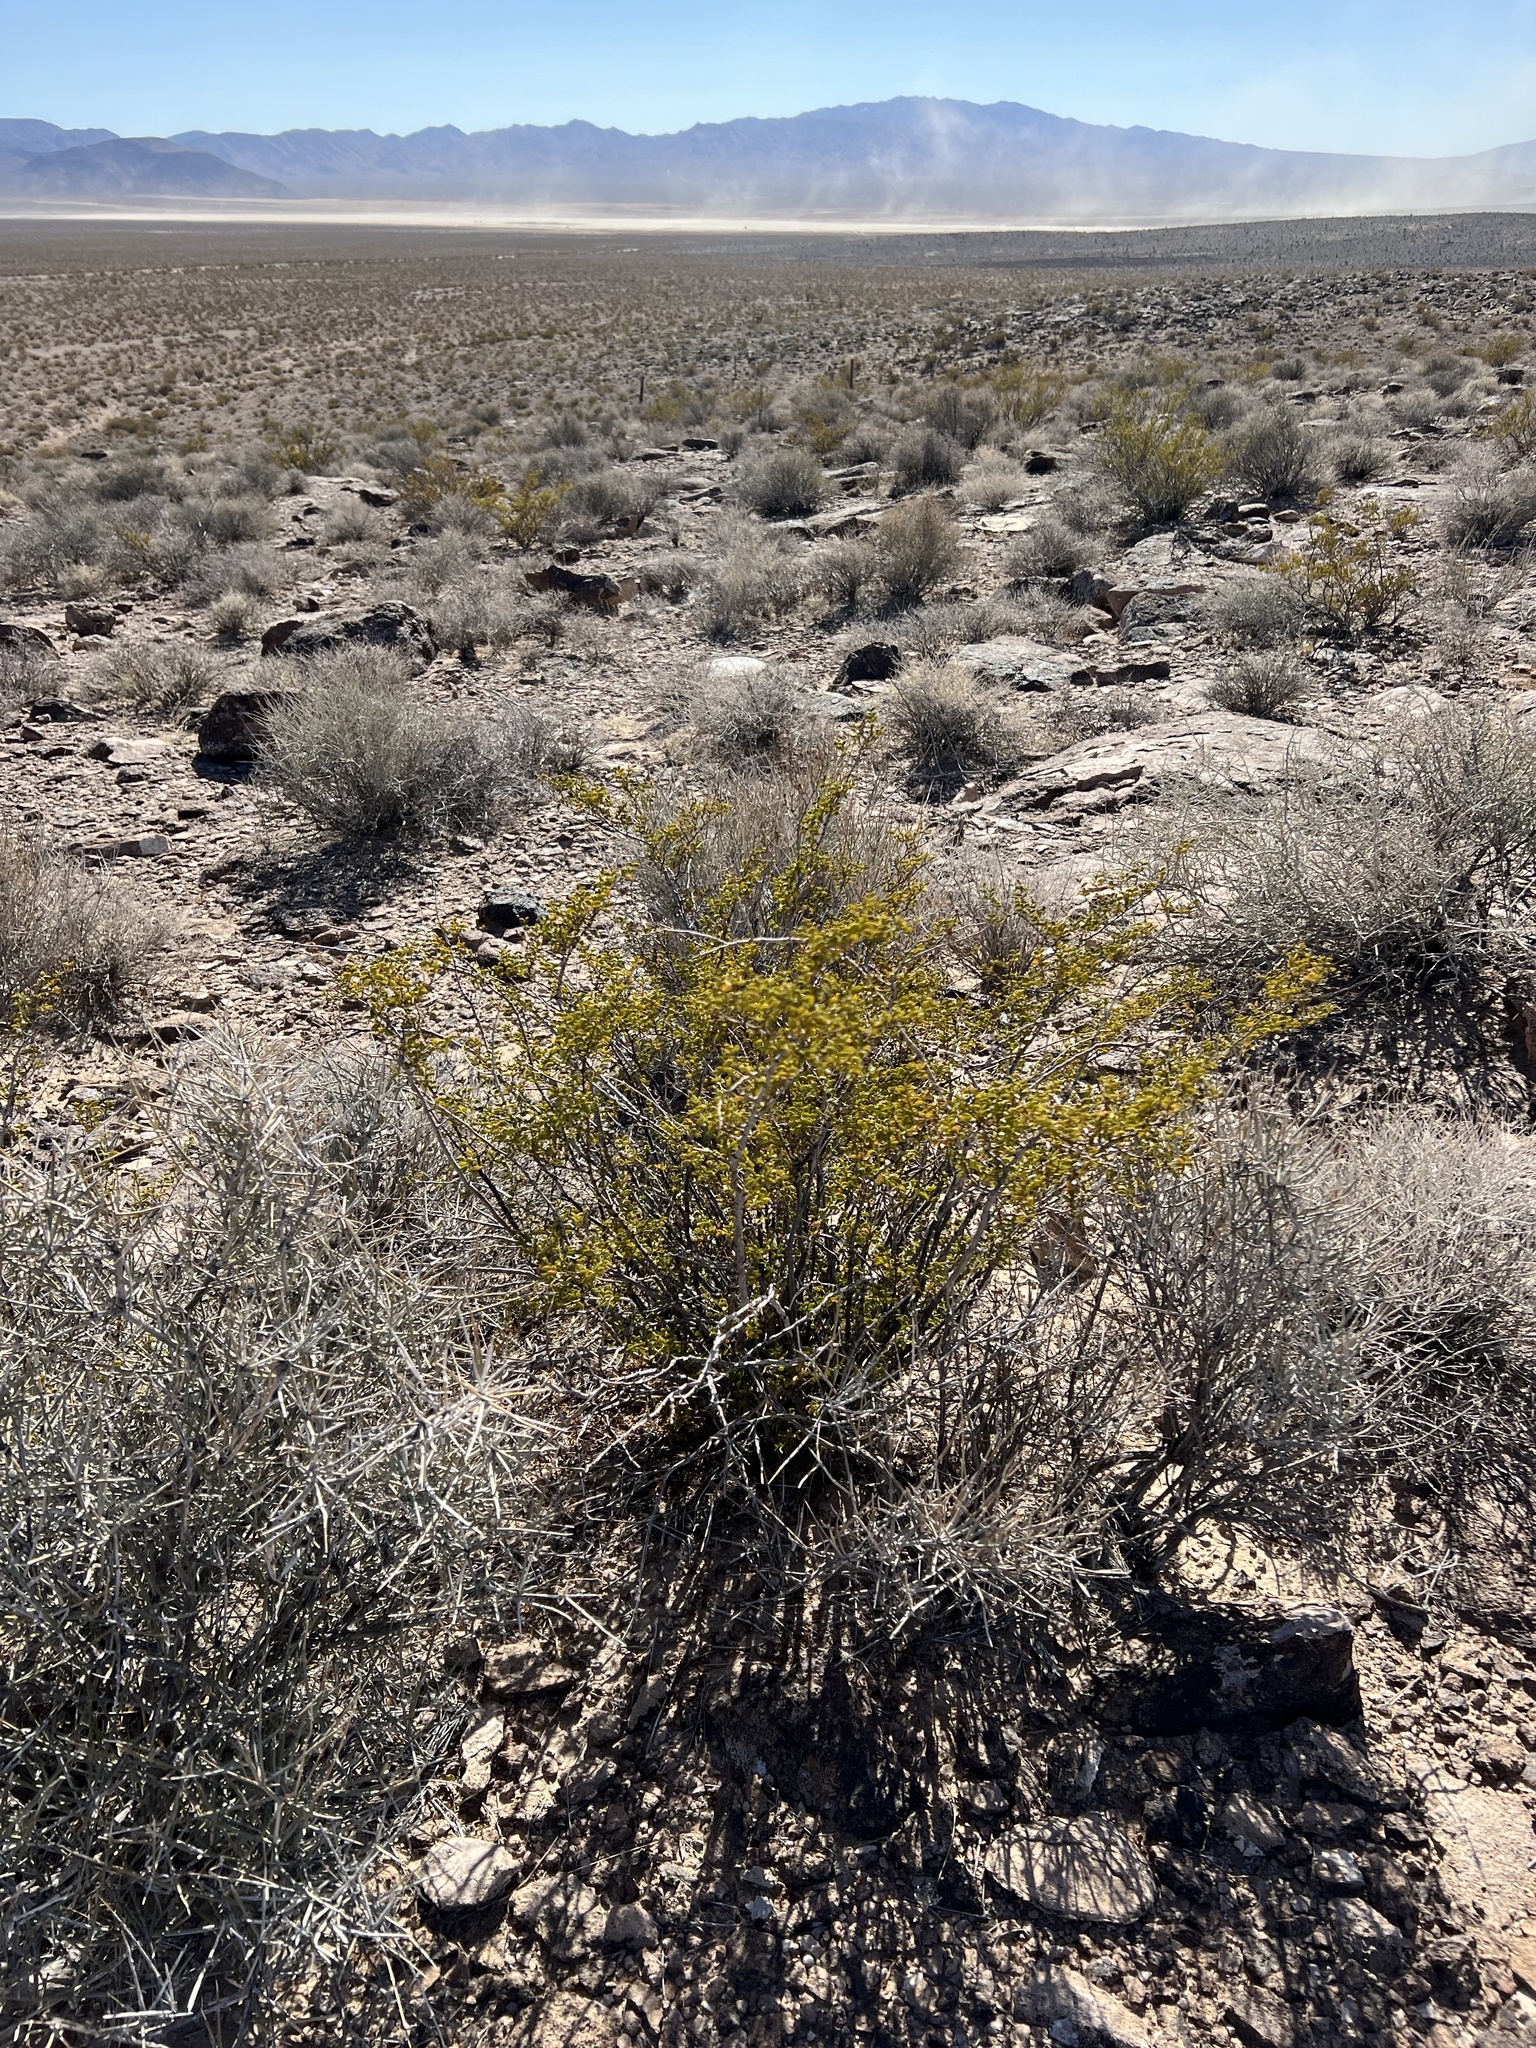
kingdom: Plantae
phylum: Tracheophyta
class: Magnoliopsida
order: Zygophyllales
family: Zygophyllaceae
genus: Larrea
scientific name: Larrea tridentata
